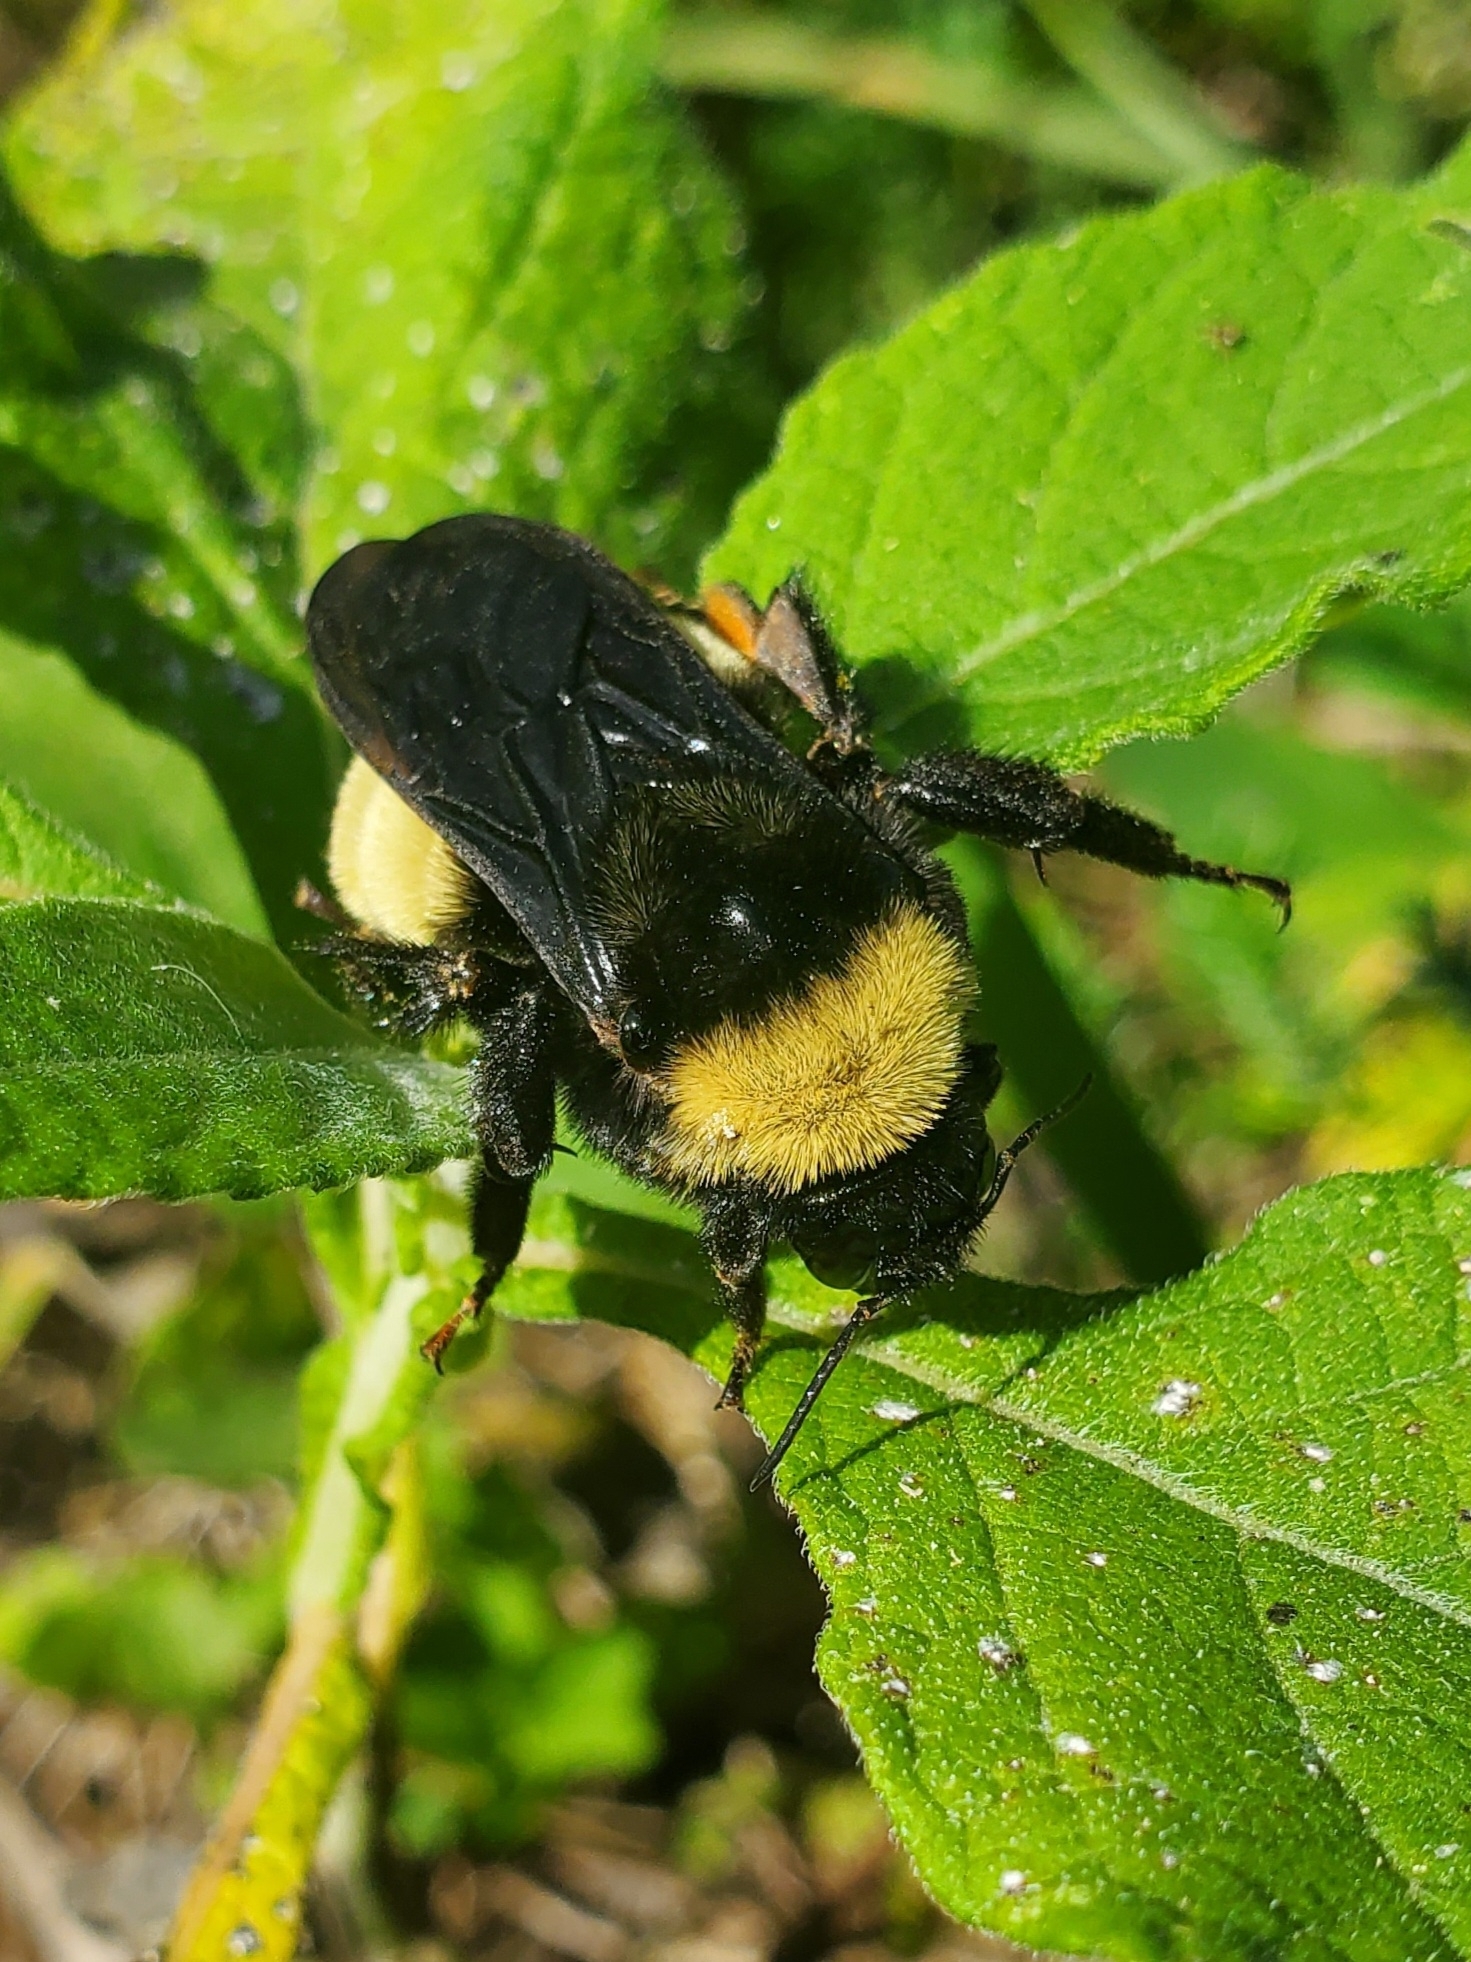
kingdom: Animalia
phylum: Arthropoda
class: Insecta
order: Hymenoptera
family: Apidae
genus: Bombus
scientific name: Bombus pensylvanicus
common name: Bumble bee
